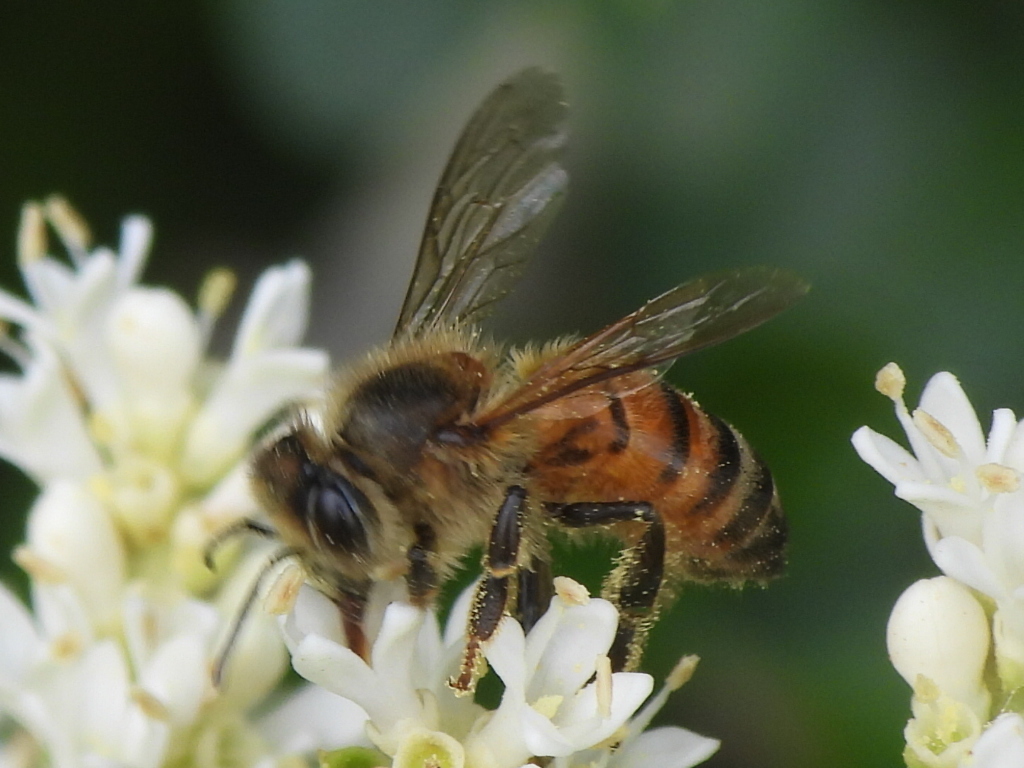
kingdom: Animalia
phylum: Arthropoda
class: Insecta
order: Hymenoptera
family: Apidae
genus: Apis
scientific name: Apis mellifera
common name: Honey bee
